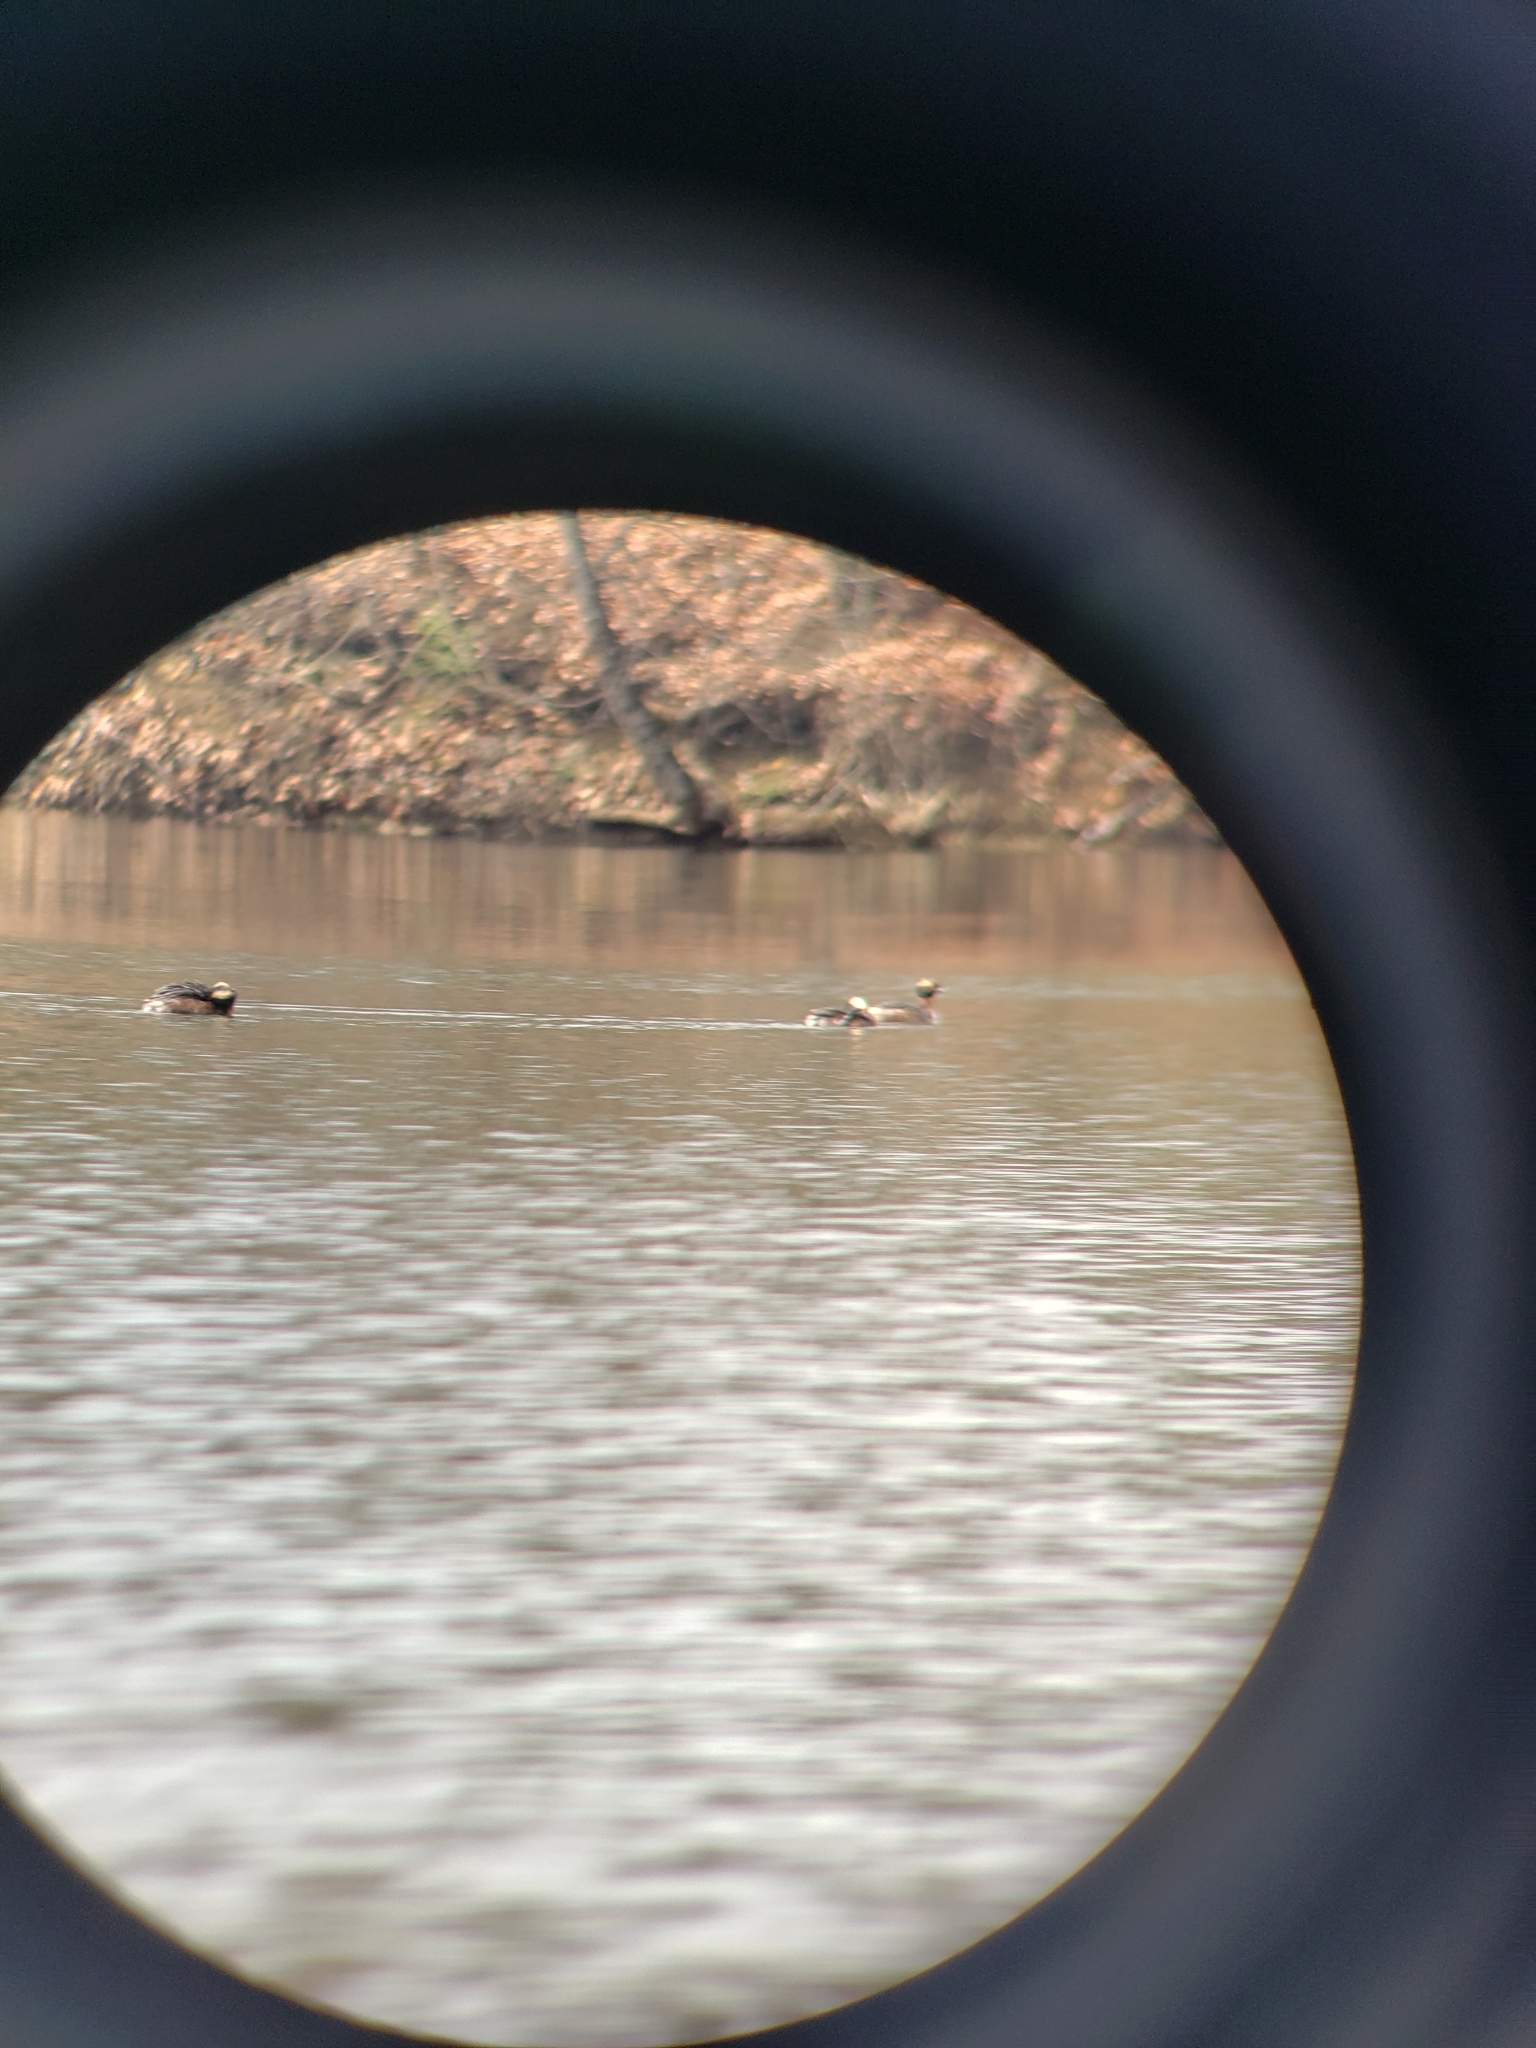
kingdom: Animalia
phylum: Chordata
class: Aves
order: Podicipediformes
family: Podicipedidae
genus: Podiceps
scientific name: Podiceps auritus
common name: Horned grebe
